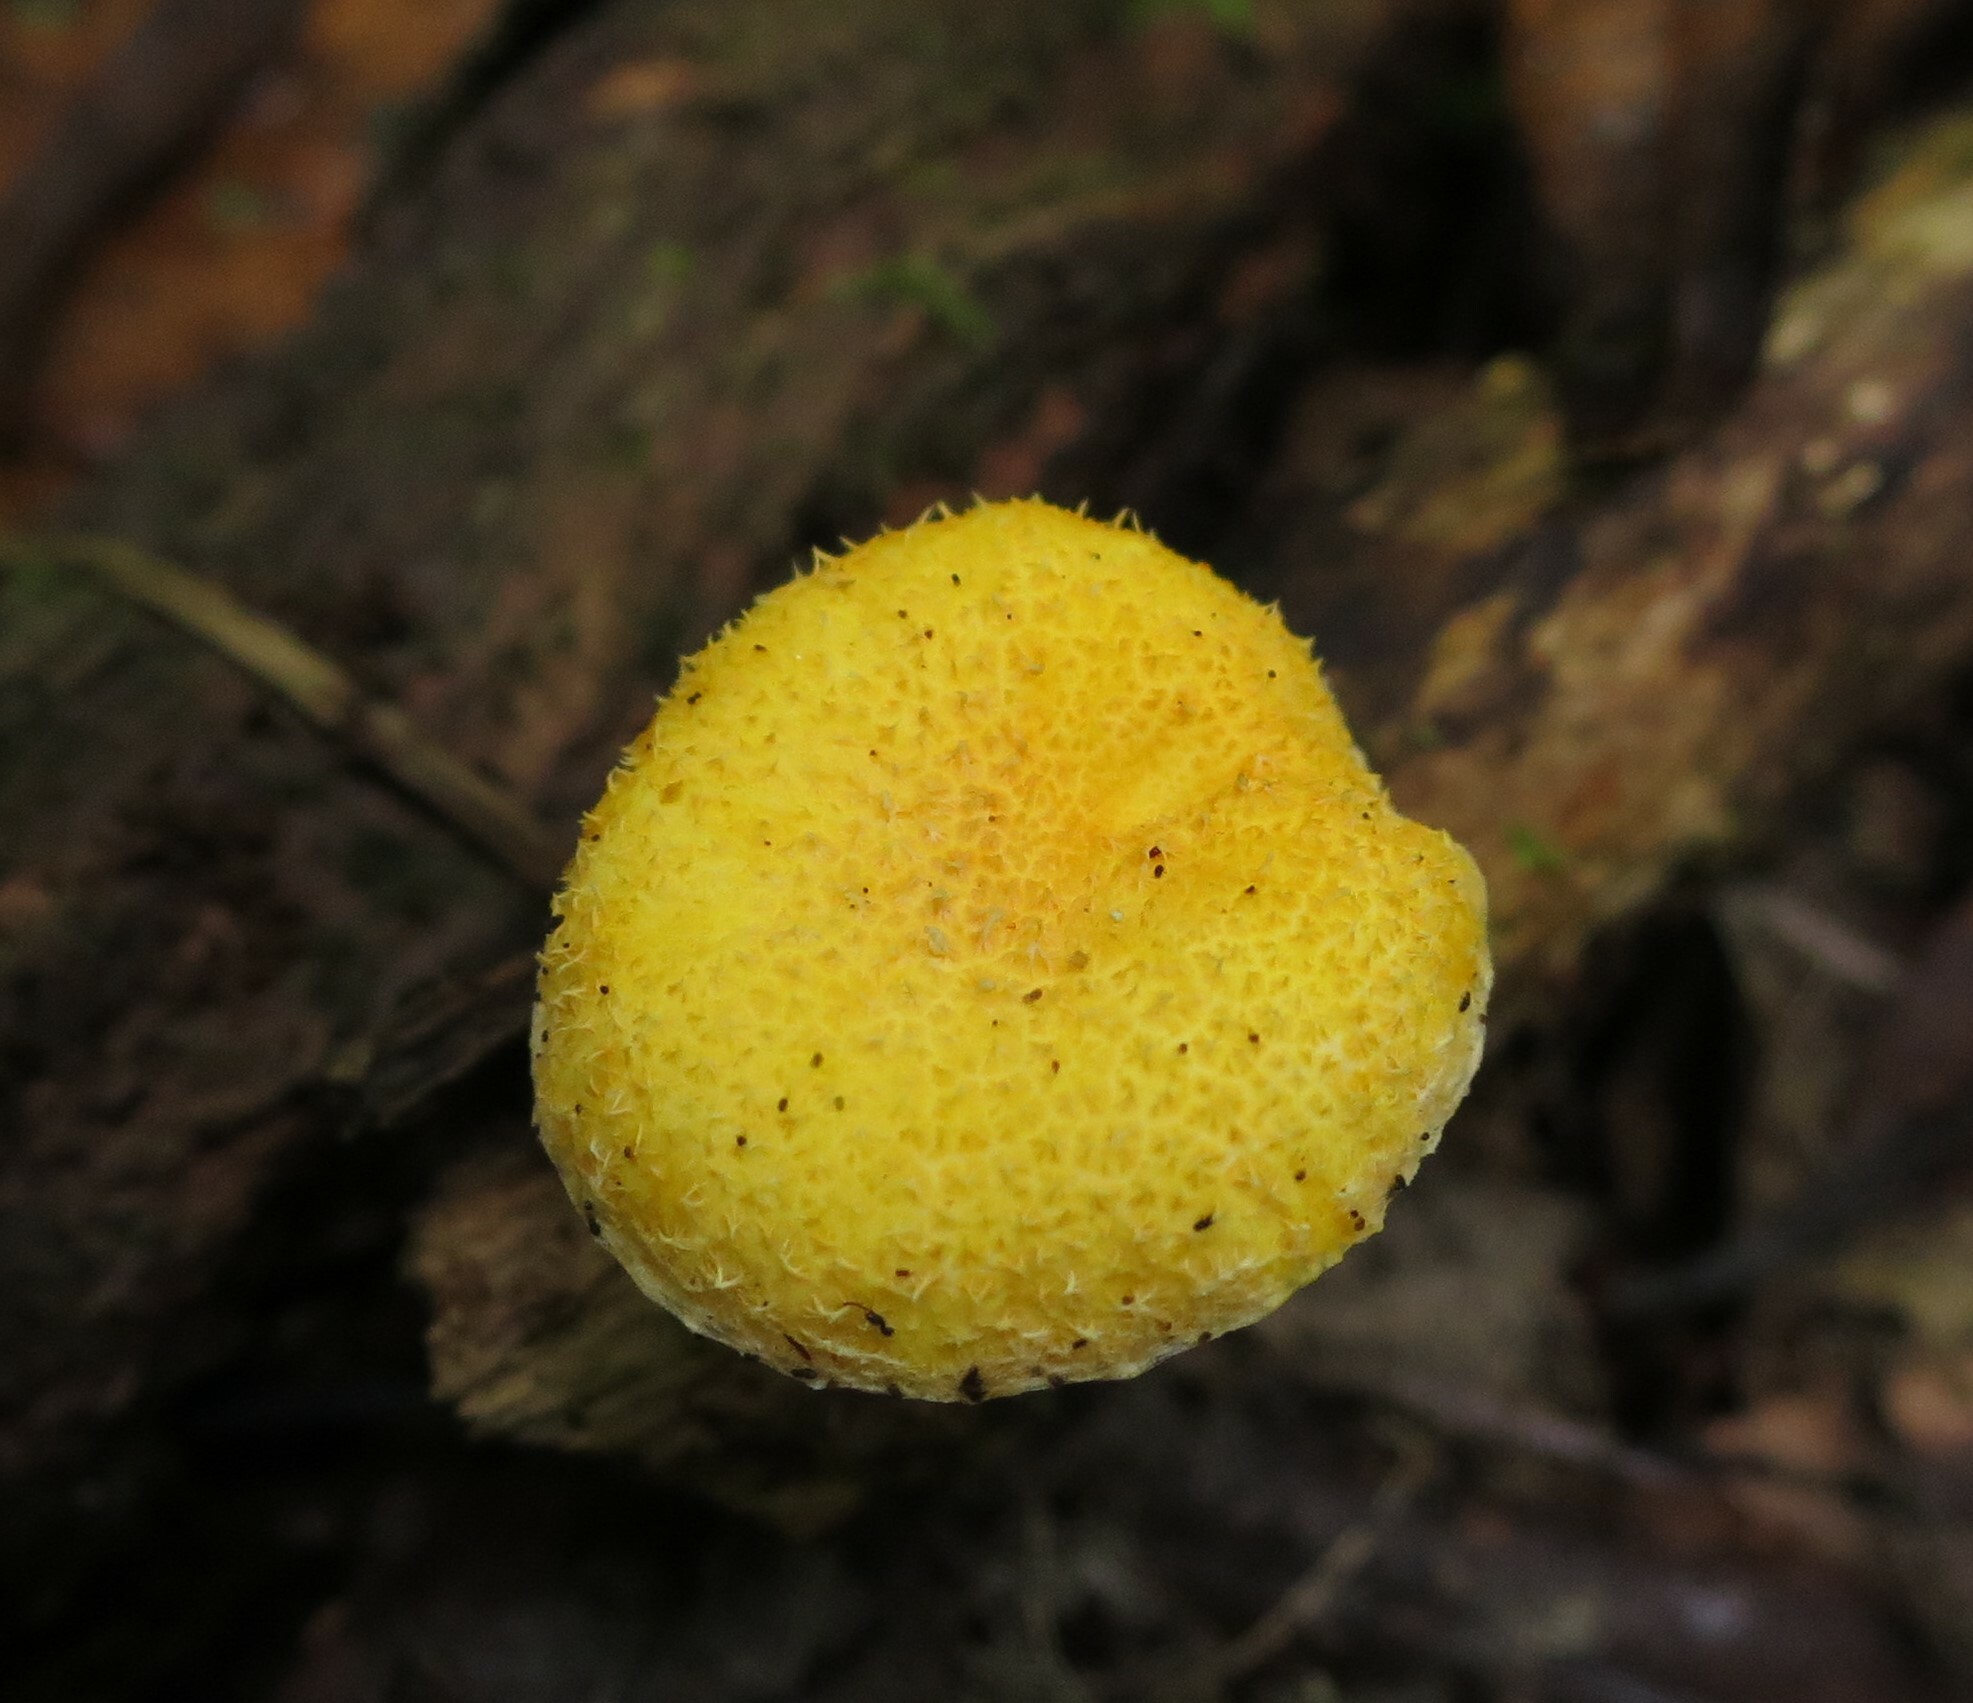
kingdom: Fungi
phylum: Basidiomycota
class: Agaricomycetes
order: Agaricales
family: Physalacriaceae
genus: Cyptotrama
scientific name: Cyptotrama asprata
